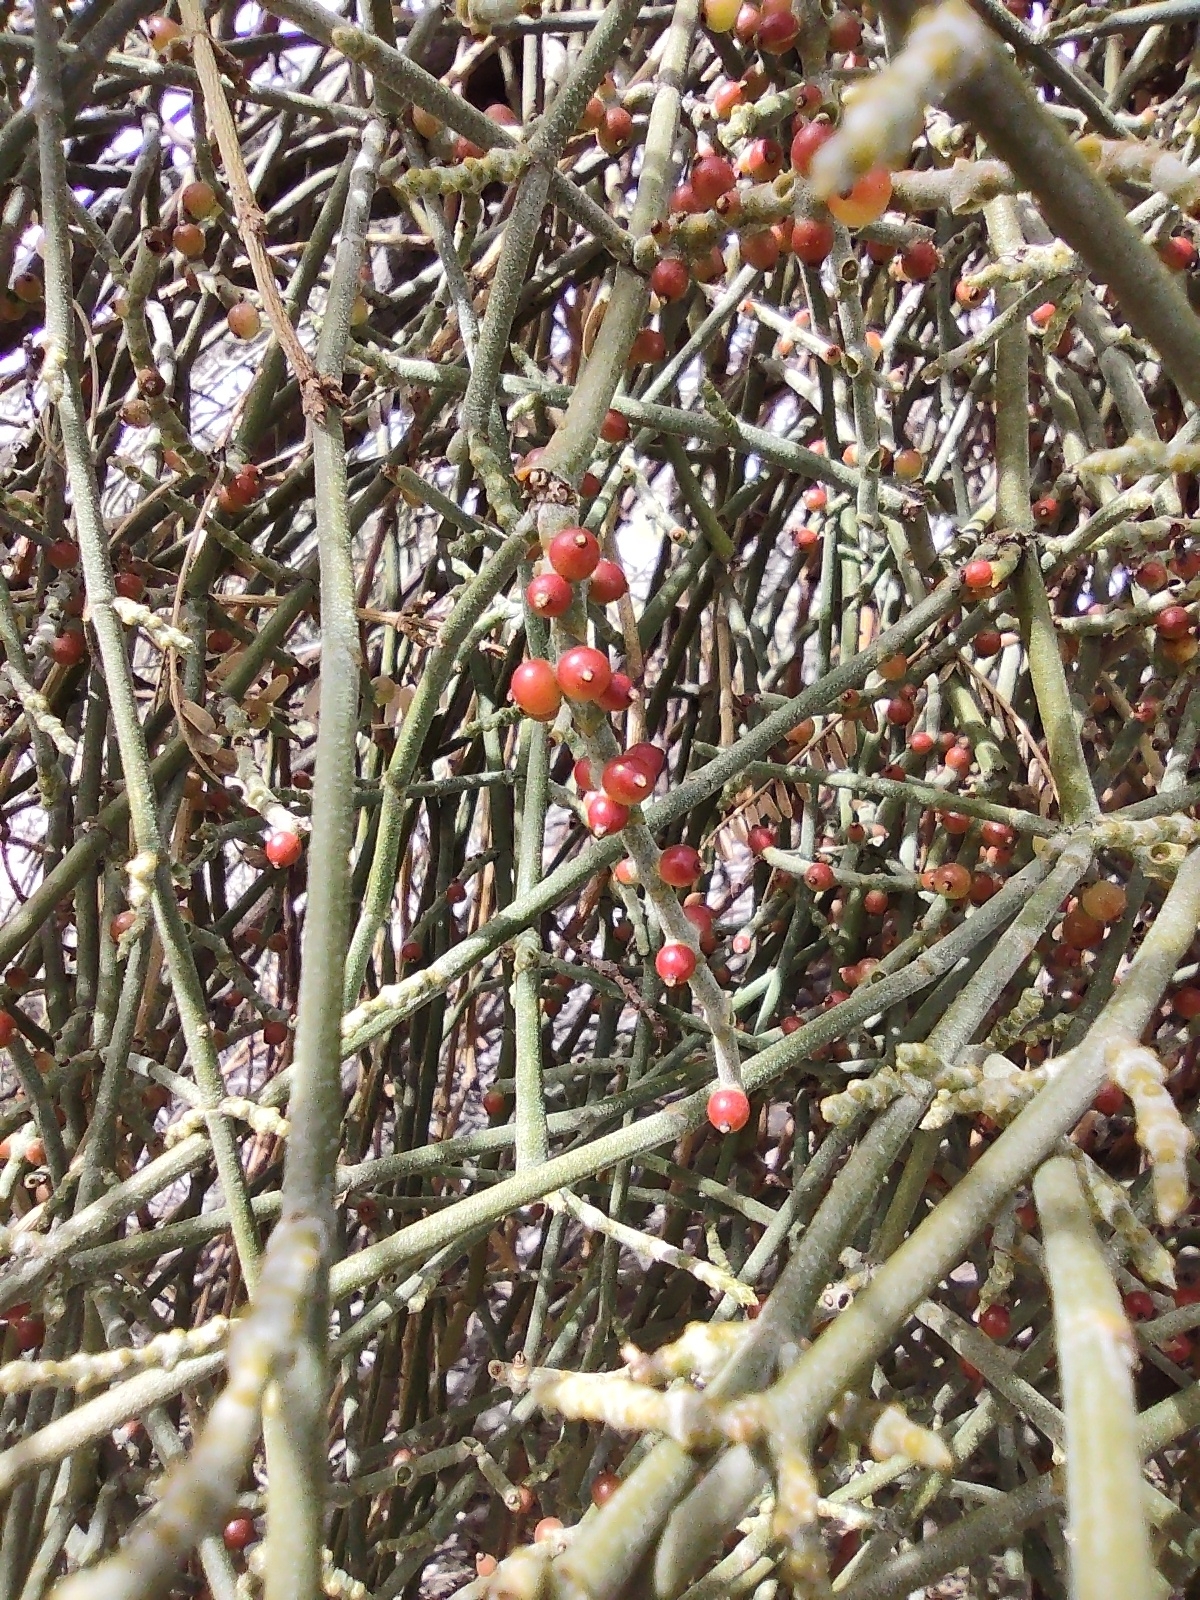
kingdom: Plantae
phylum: Tracheophyta
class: Magnoliopsida
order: Santalales
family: Viscaceae
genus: Phoradendron
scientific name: Phoradendron californicum
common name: Acacia mistletoe
